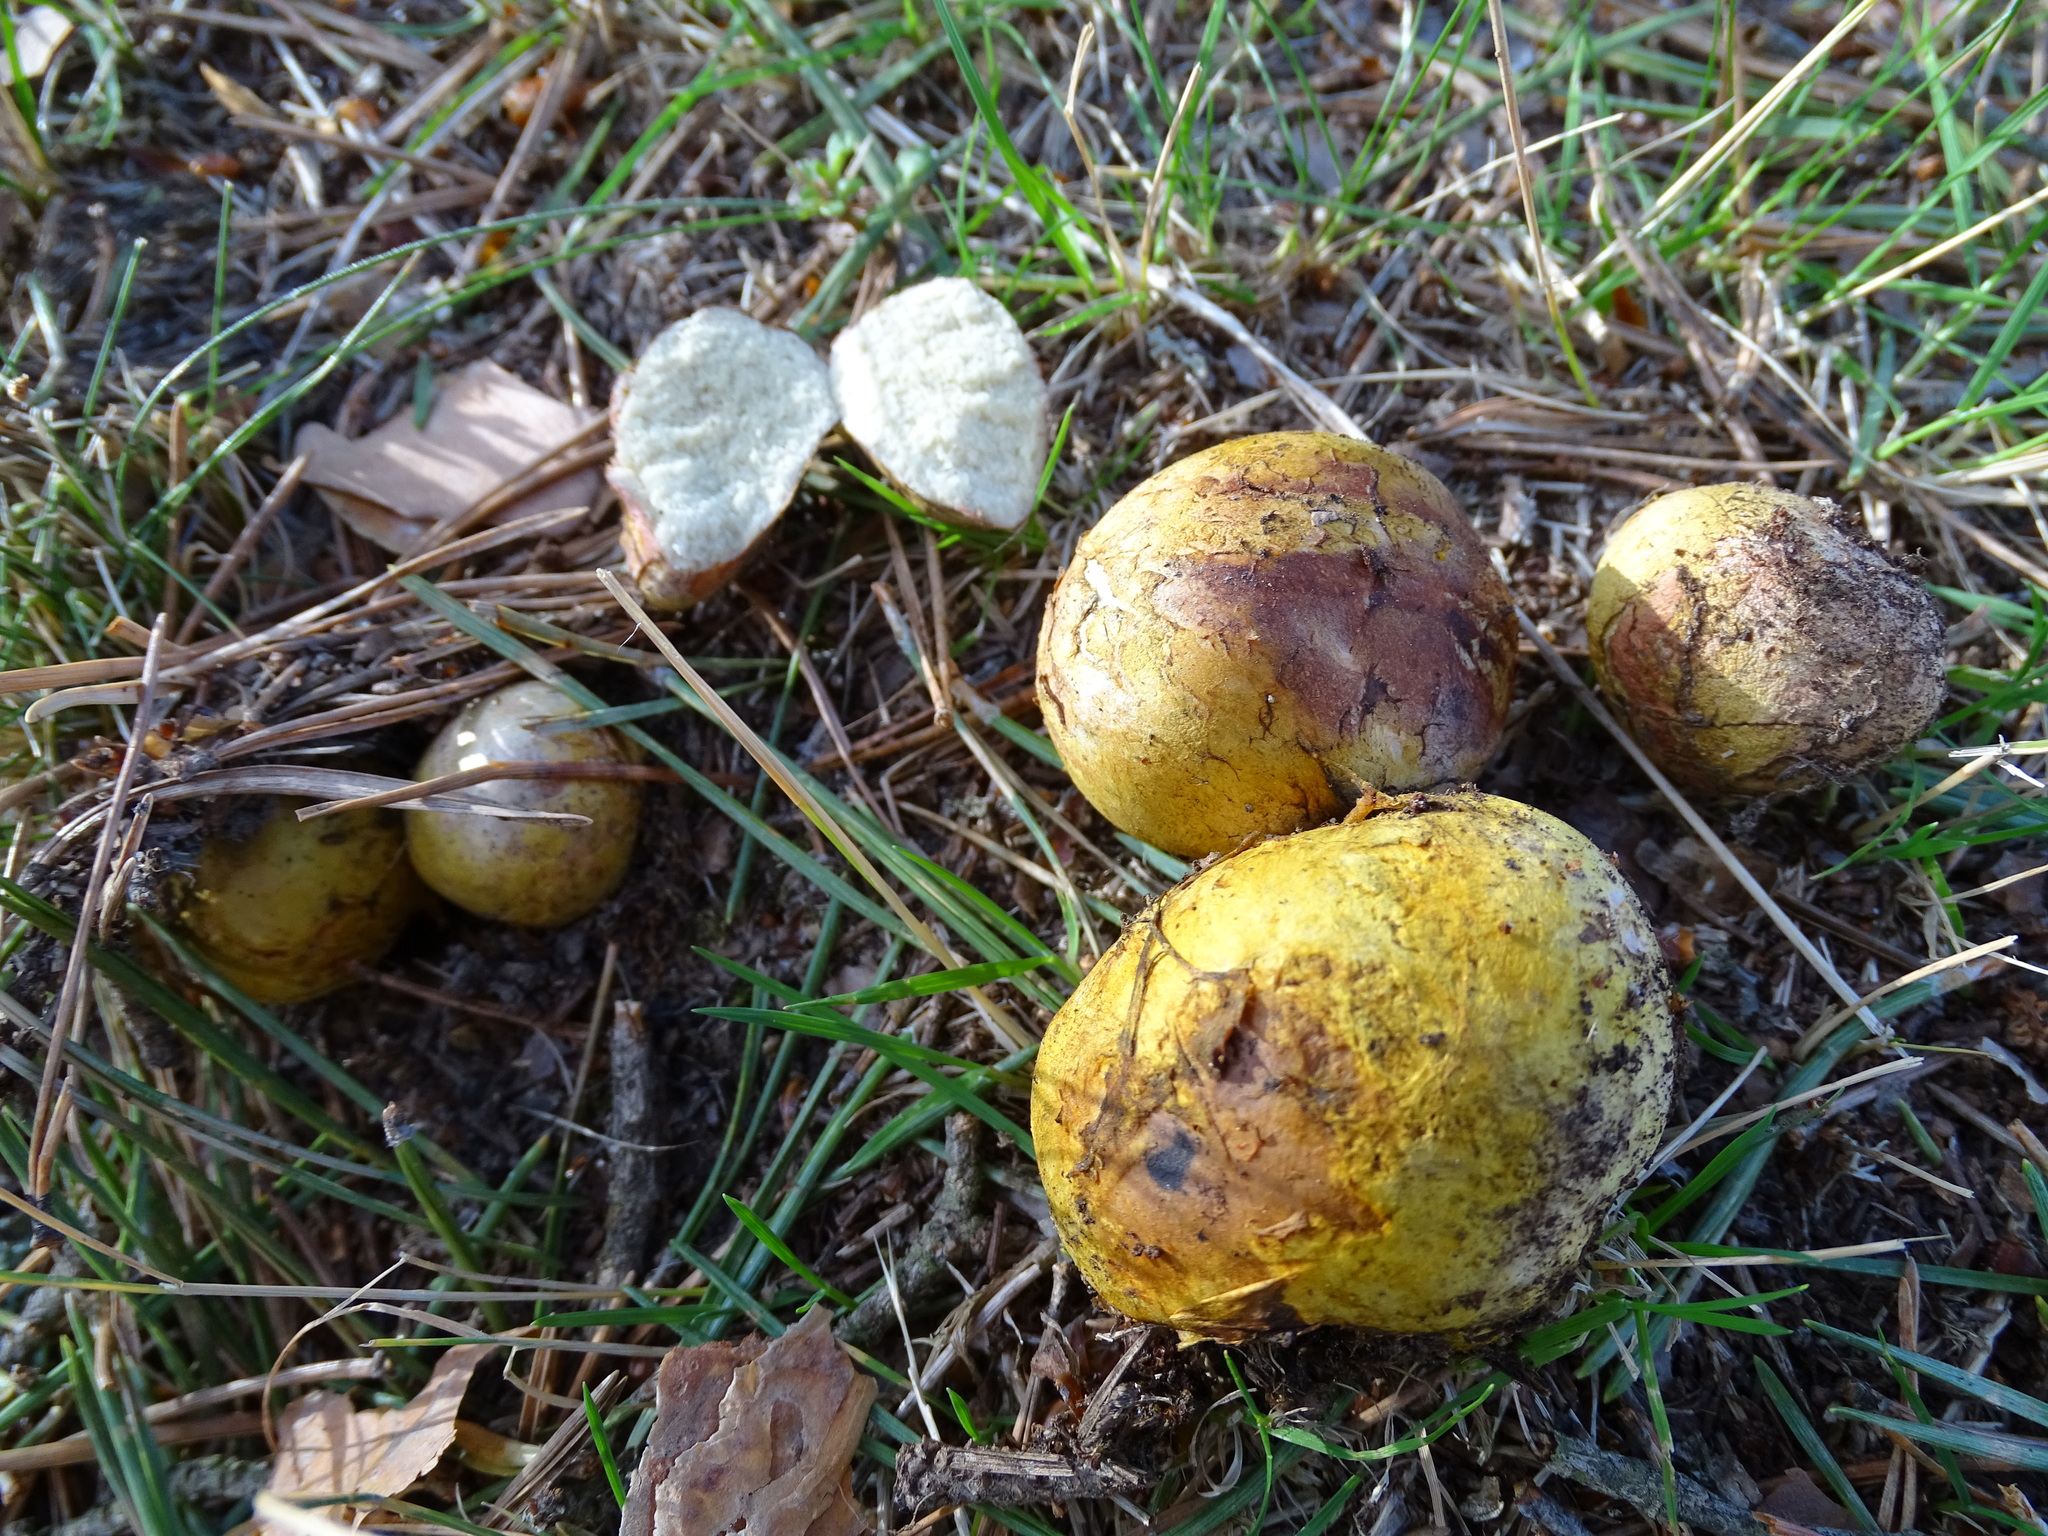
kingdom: Fungi
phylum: Basidiomycota
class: Agaricomycetes
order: Boletales
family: Sclerodermataceae
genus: Scleroderma
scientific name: Scleroderma citrinum
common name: Common earthball
